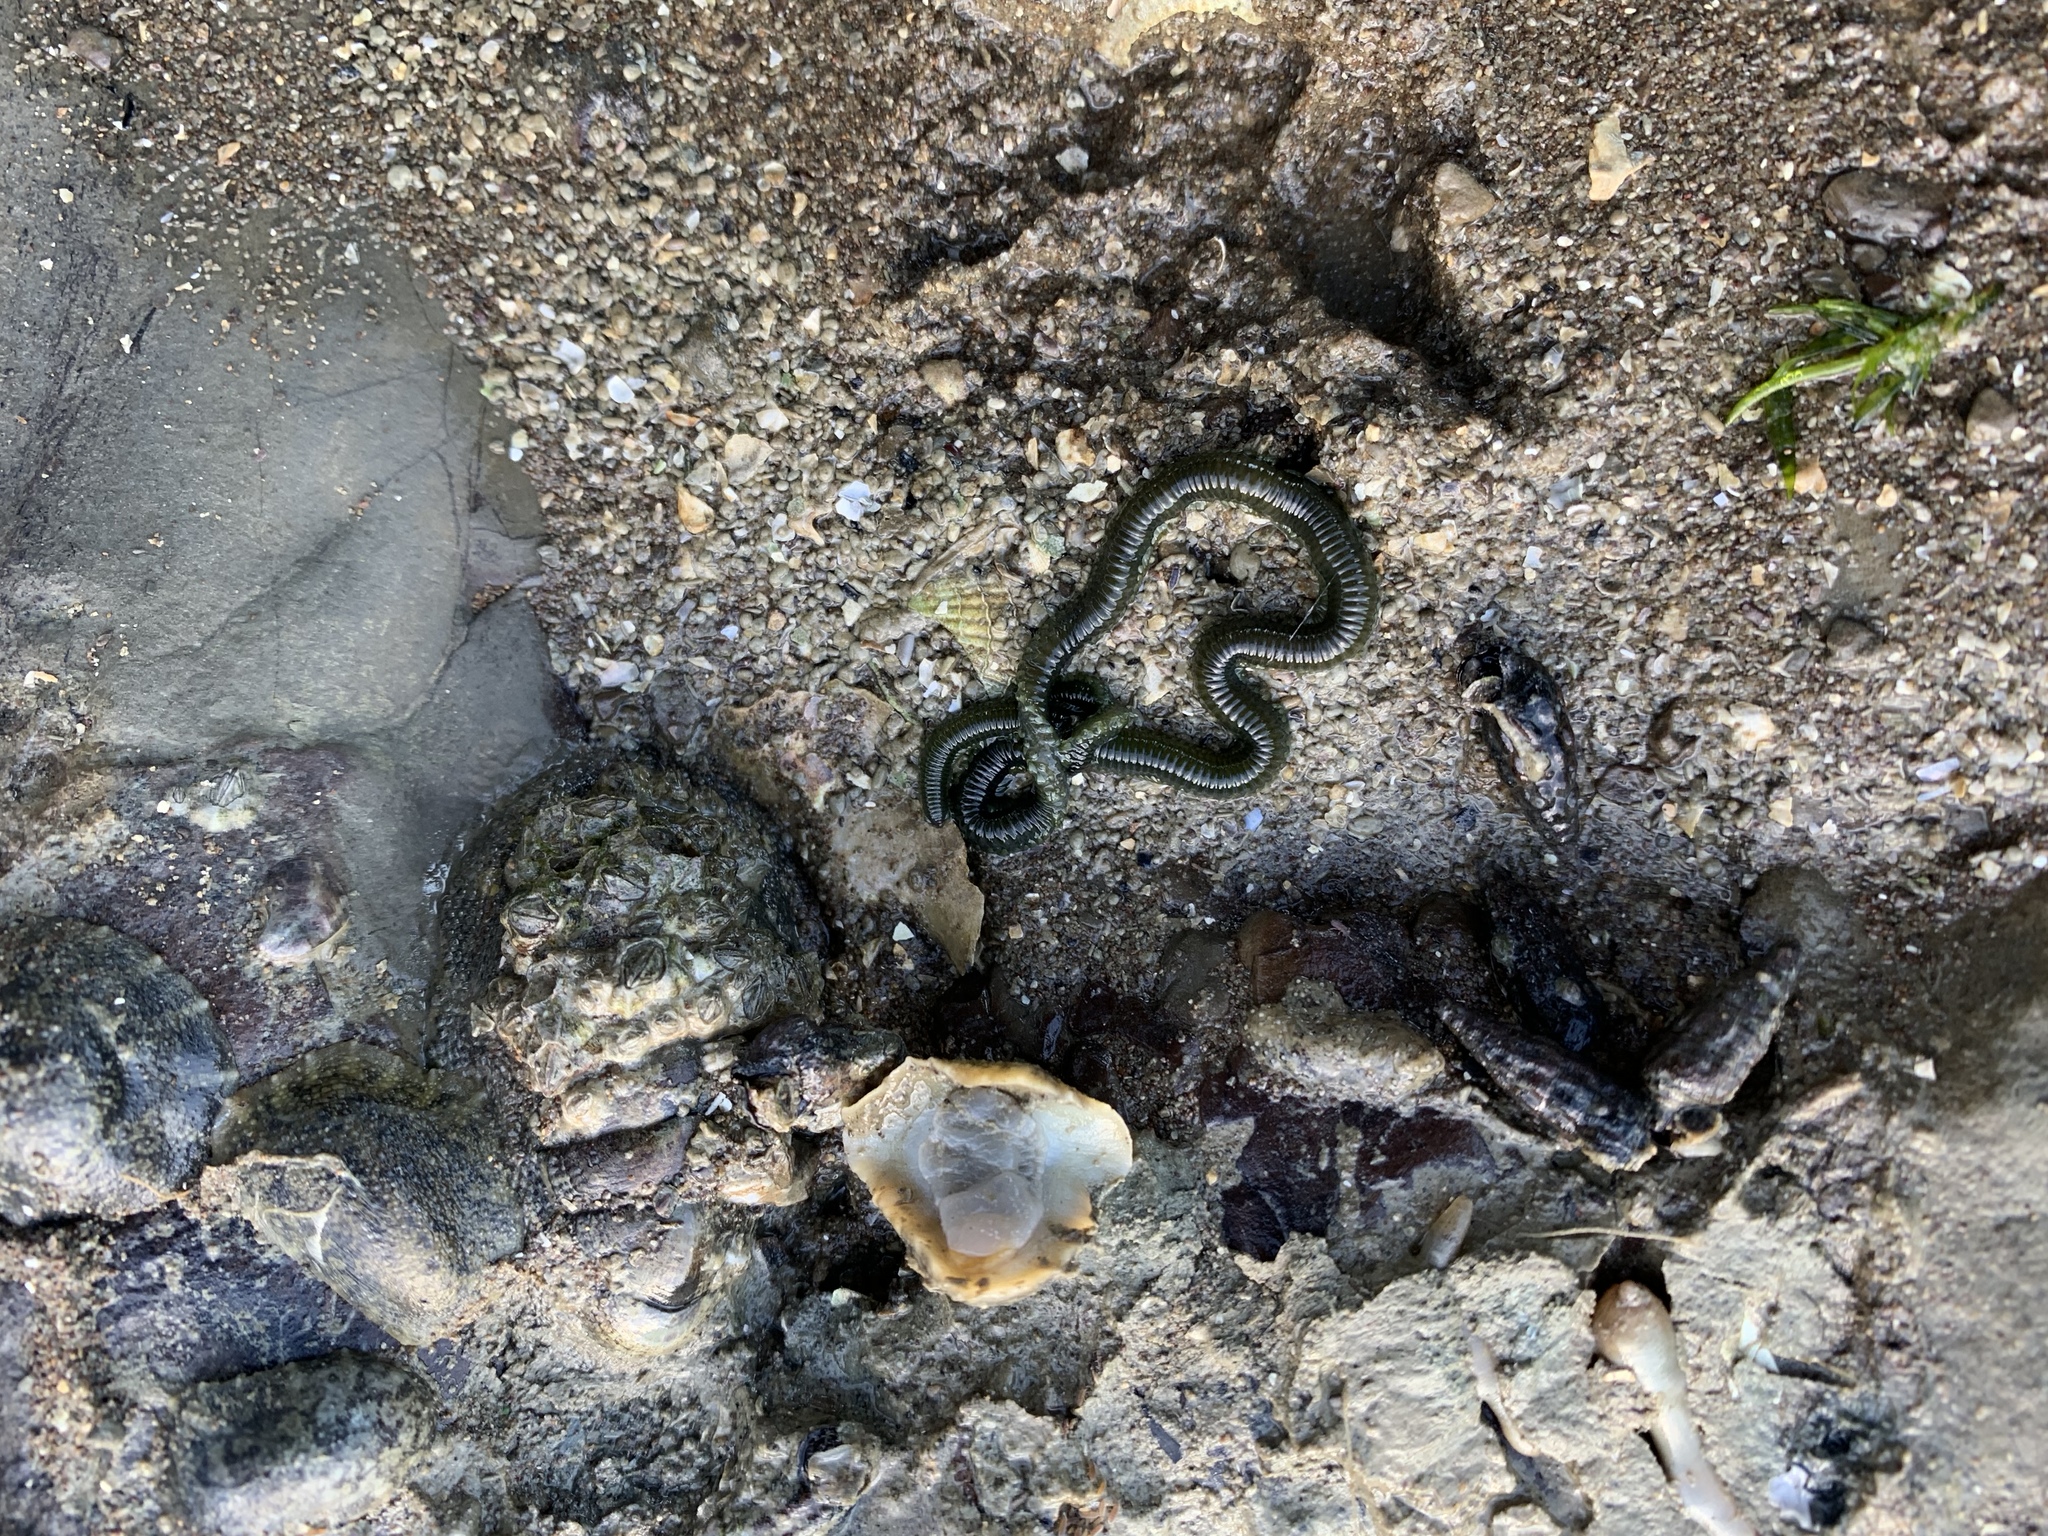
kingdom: Animalia
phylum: Annelida
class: Polychaeta
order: Phyllodocida
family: Phyllodocidae
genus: Eulalia
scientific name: Eulalia microphylla
